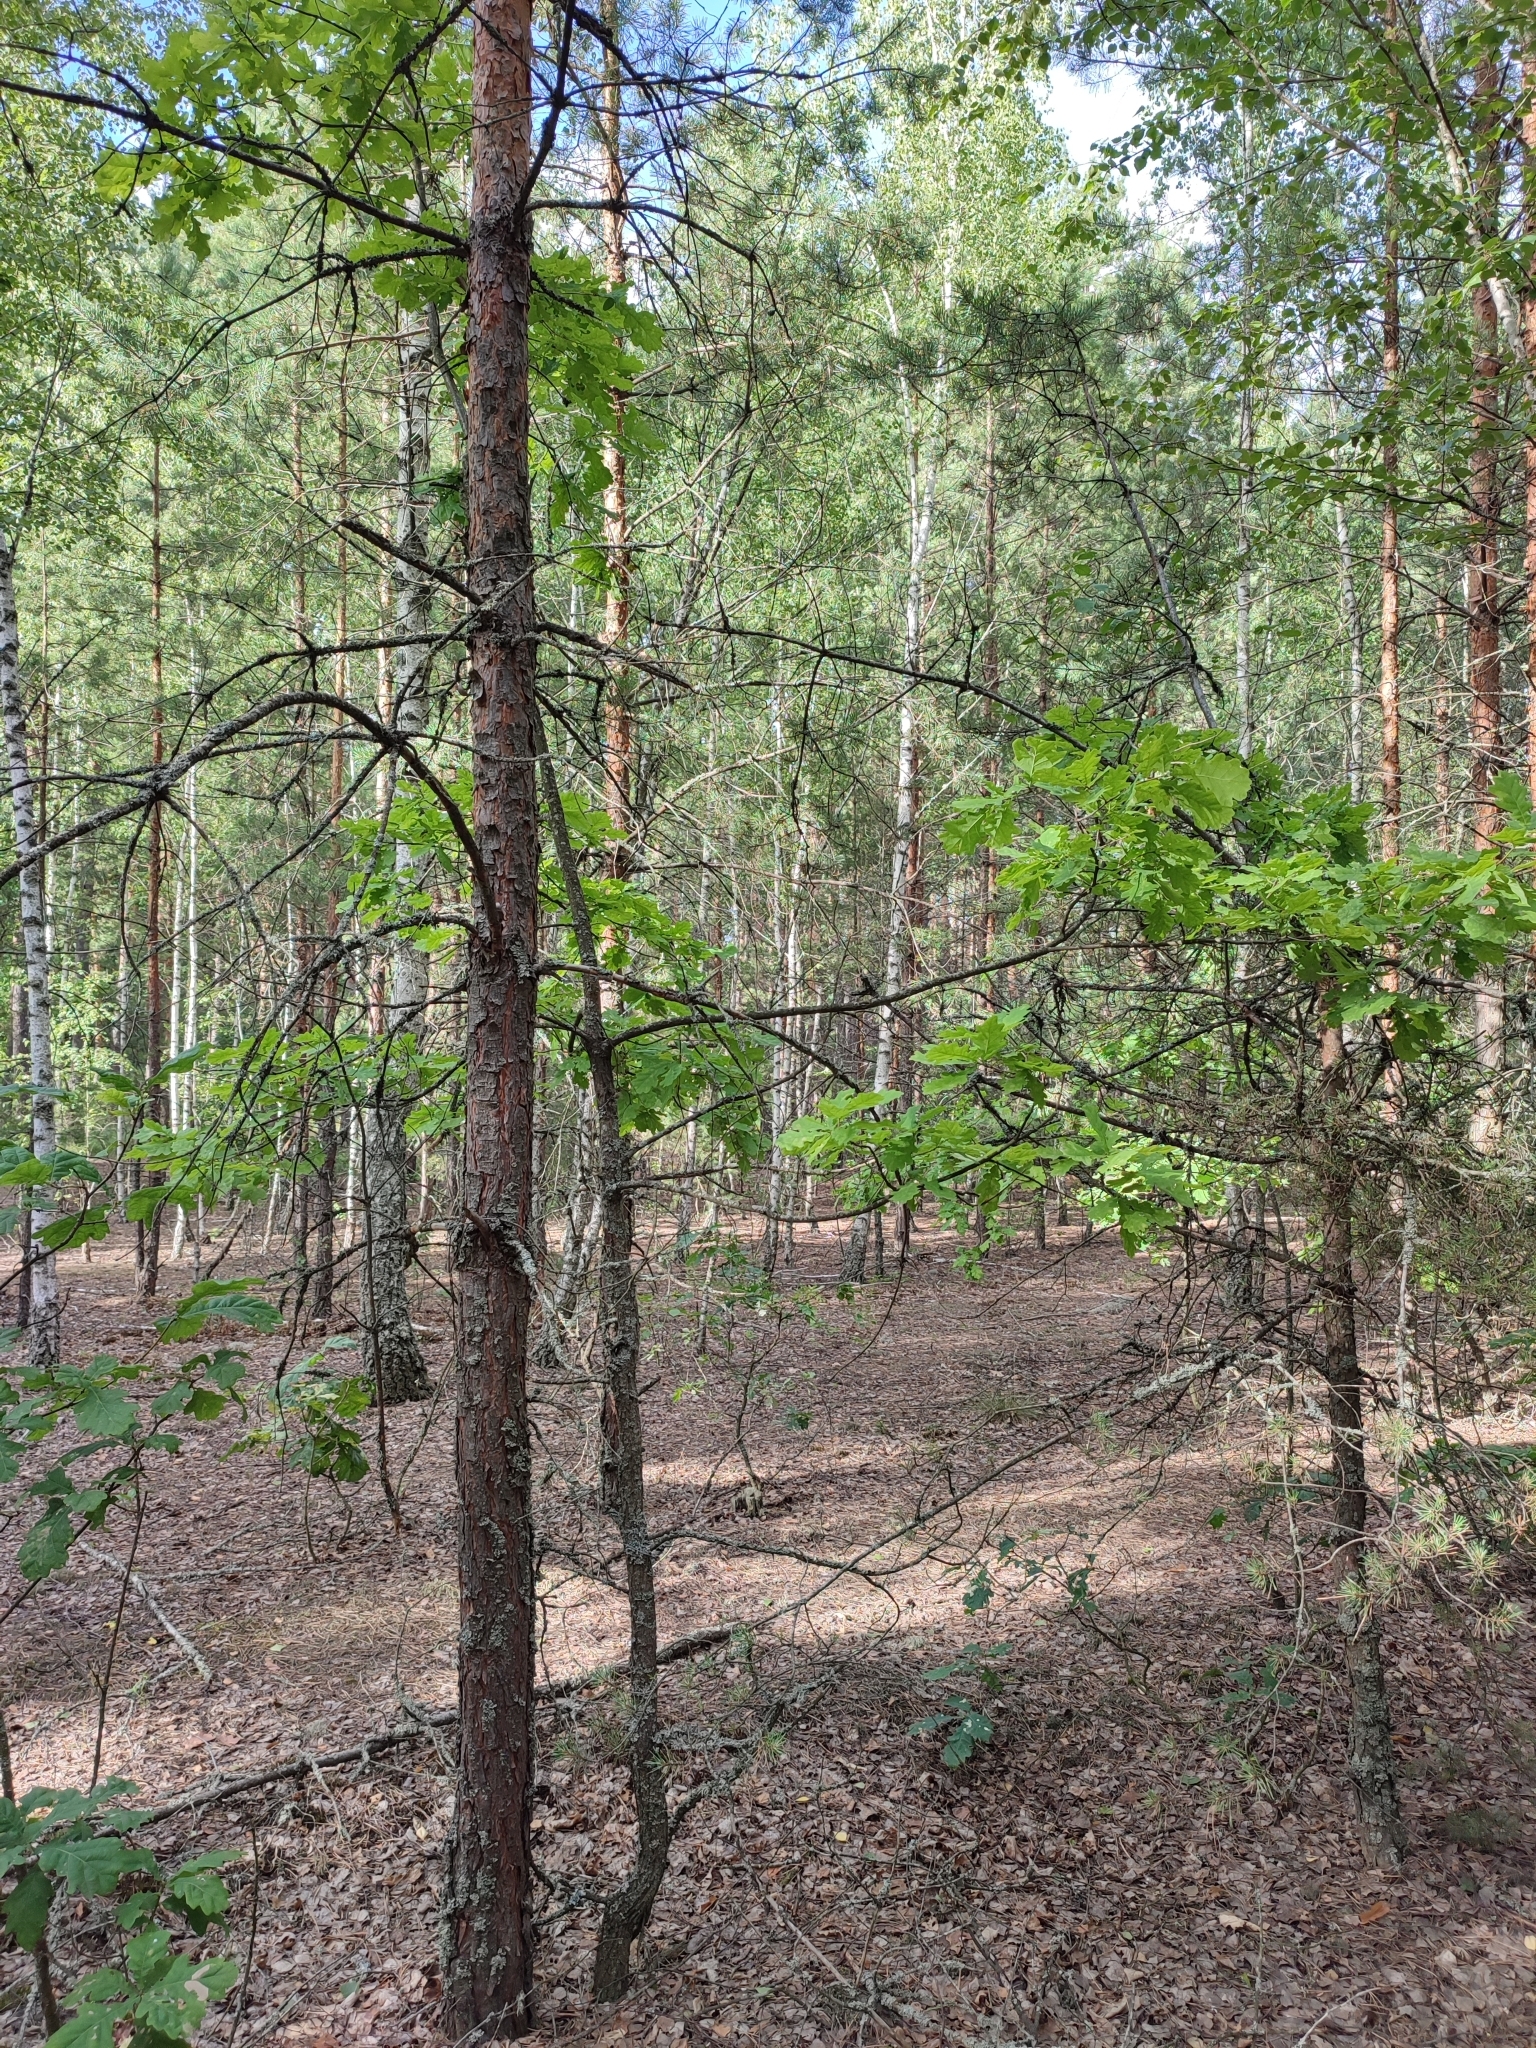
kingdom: Plantae
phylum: Tracheophyta
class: Magnoliopsida
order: Fagales
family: Fagaceae
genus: Quercus
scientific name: Quercus robur
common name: Pedunculate oak
